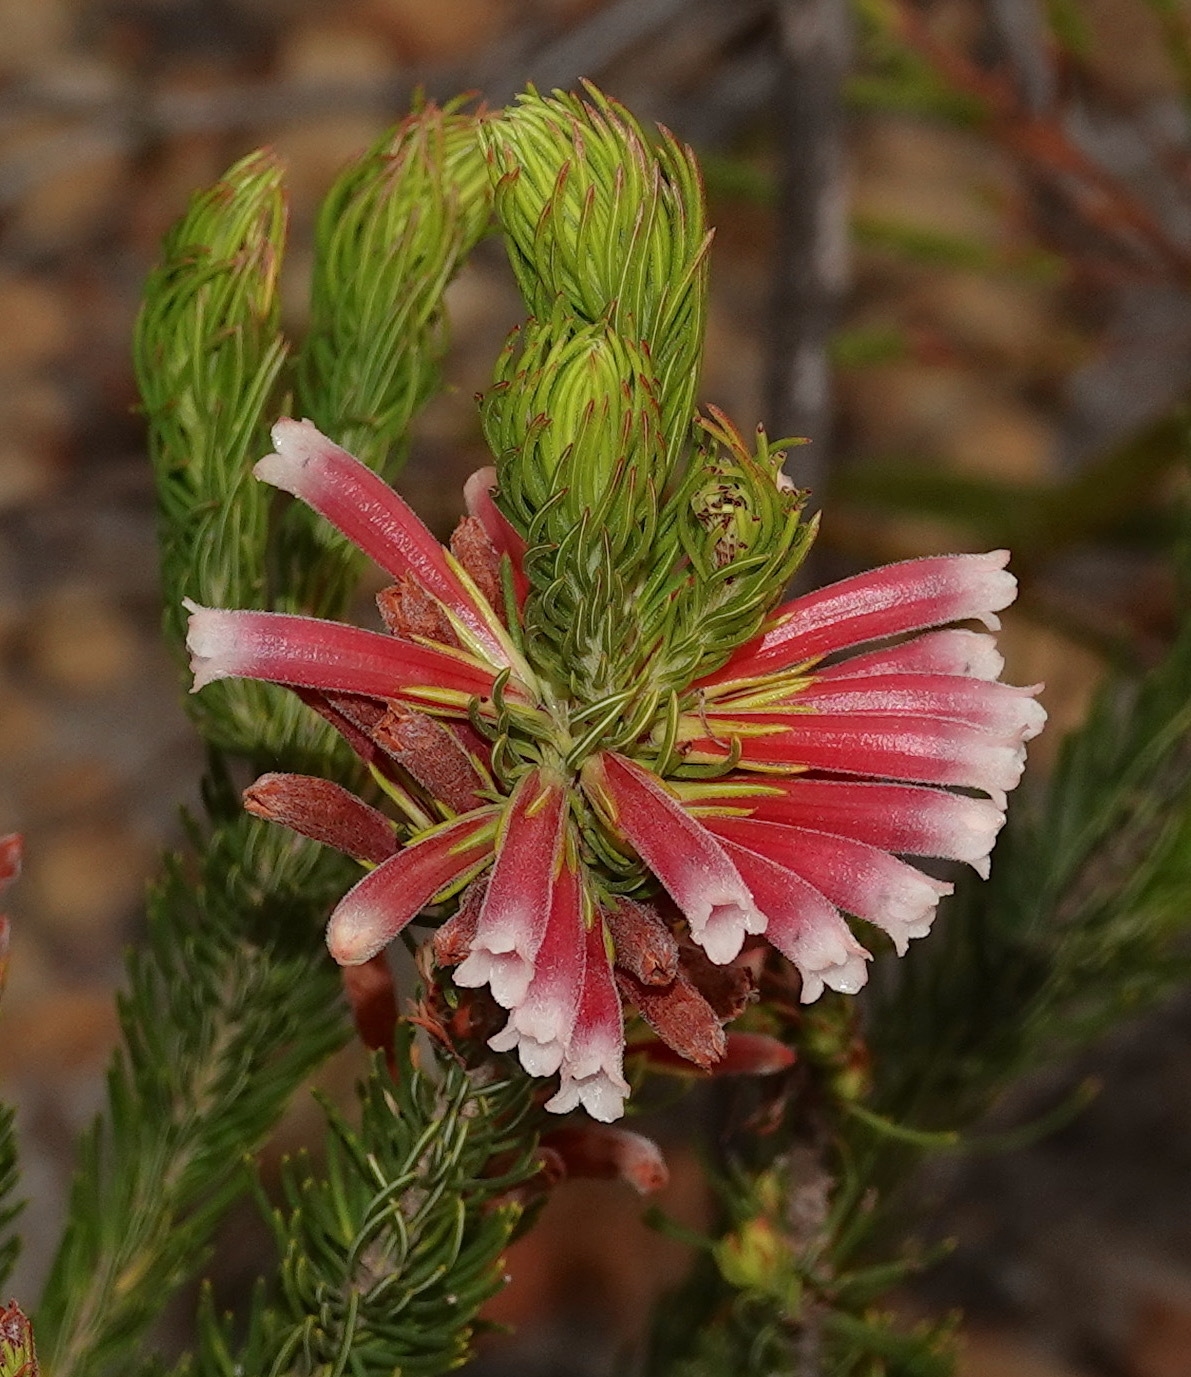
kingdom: Plantae
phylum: Tracheophyta
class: Magnoliopsida
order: Ericales
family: Ericaceae
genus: Erica
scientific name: Erica
